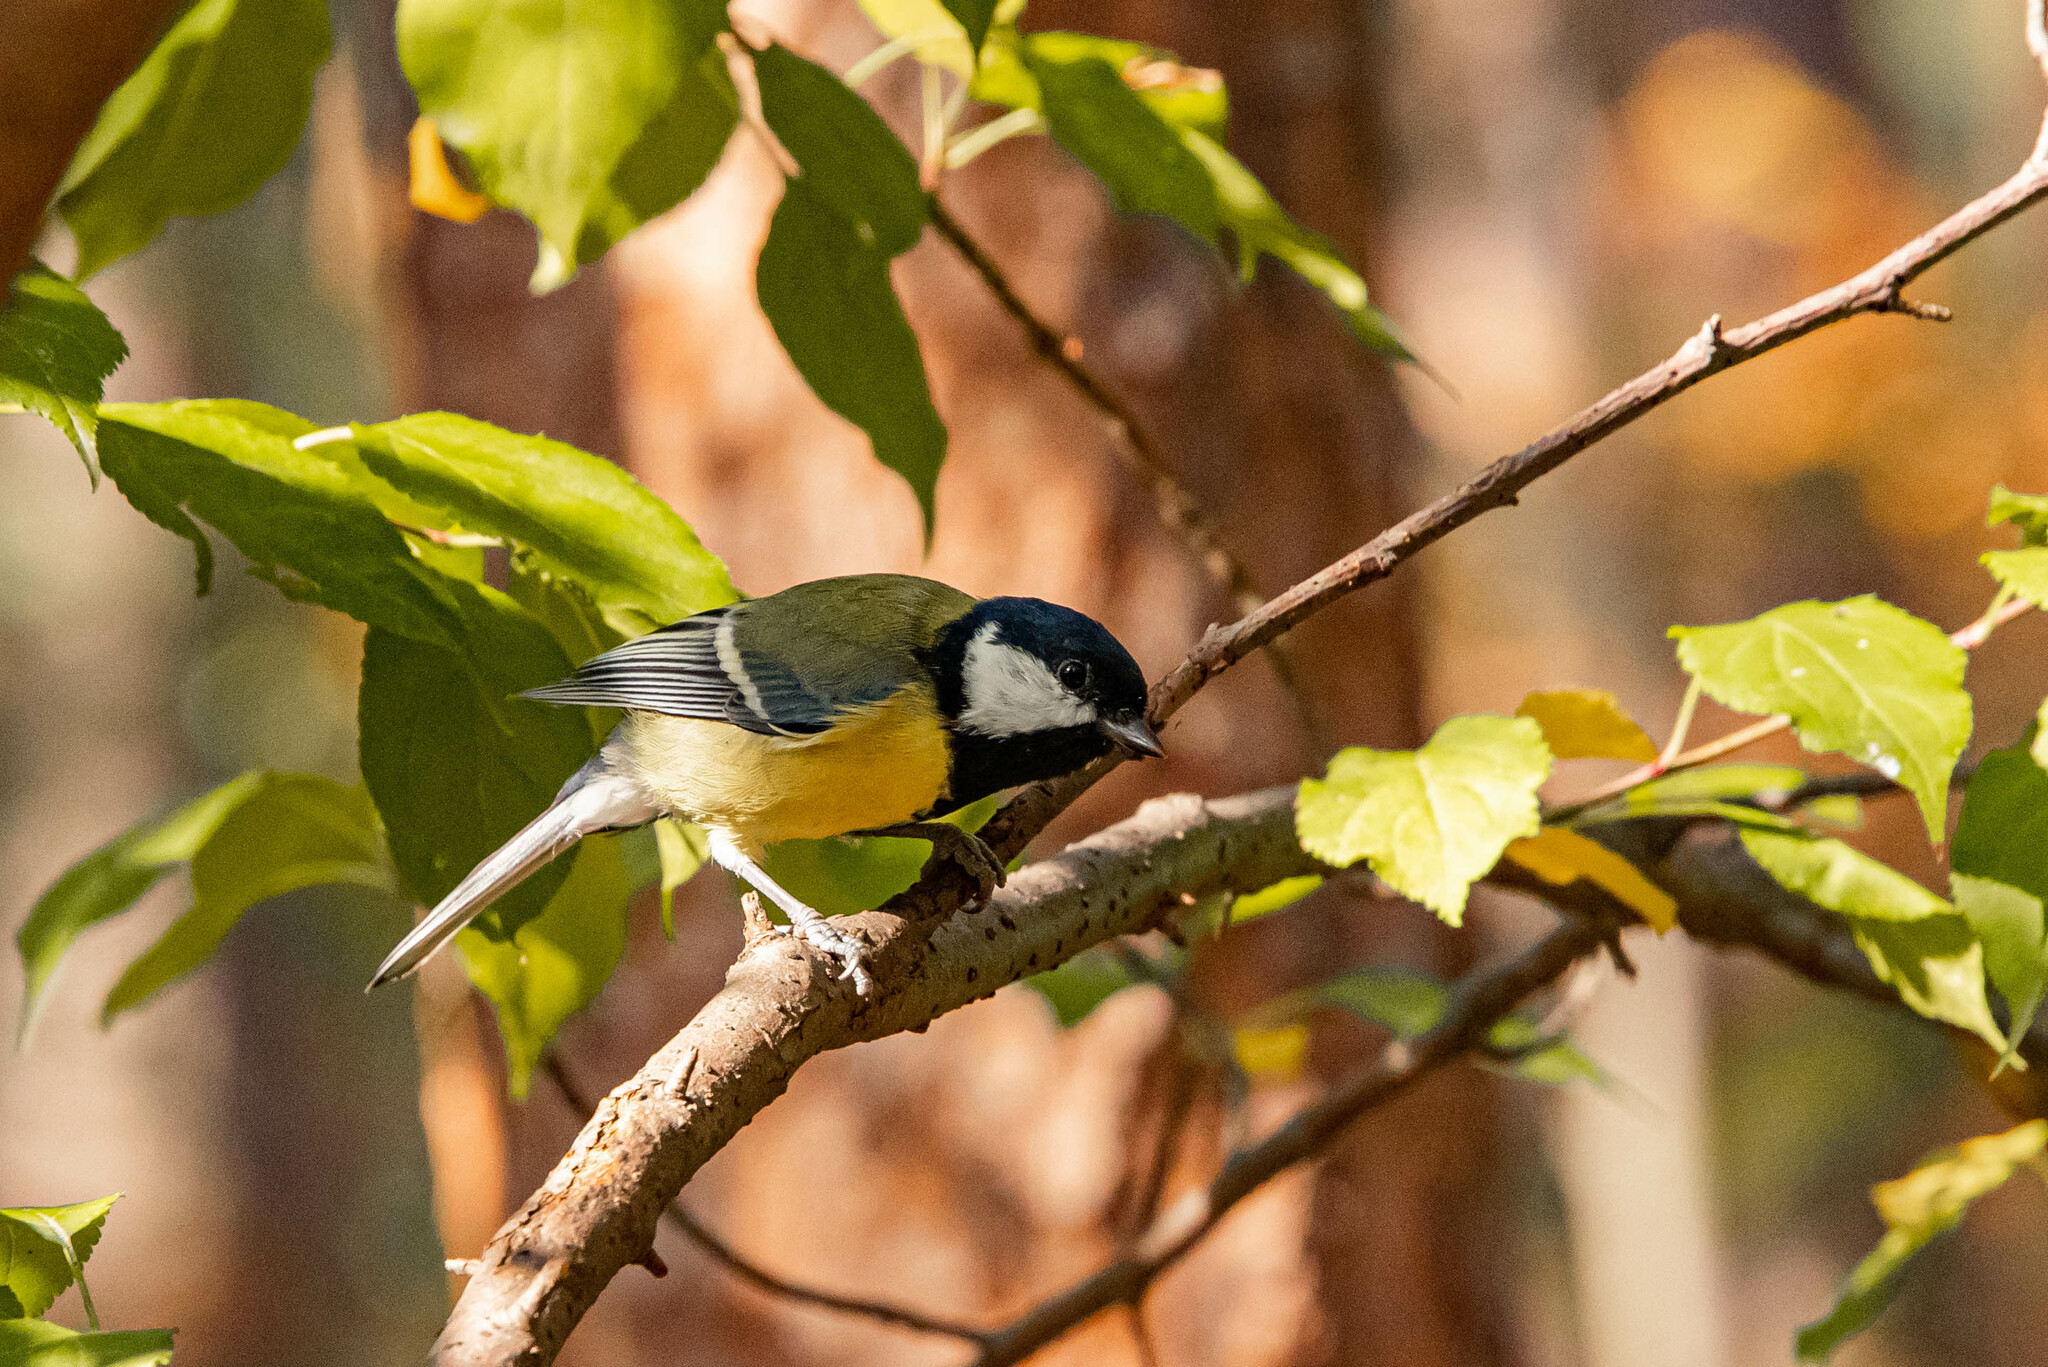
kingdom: Animalia
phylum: Chordata
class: Aves
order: Passeriformes
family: Paridae
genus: Parus
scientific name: Parus major
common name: Great tit
